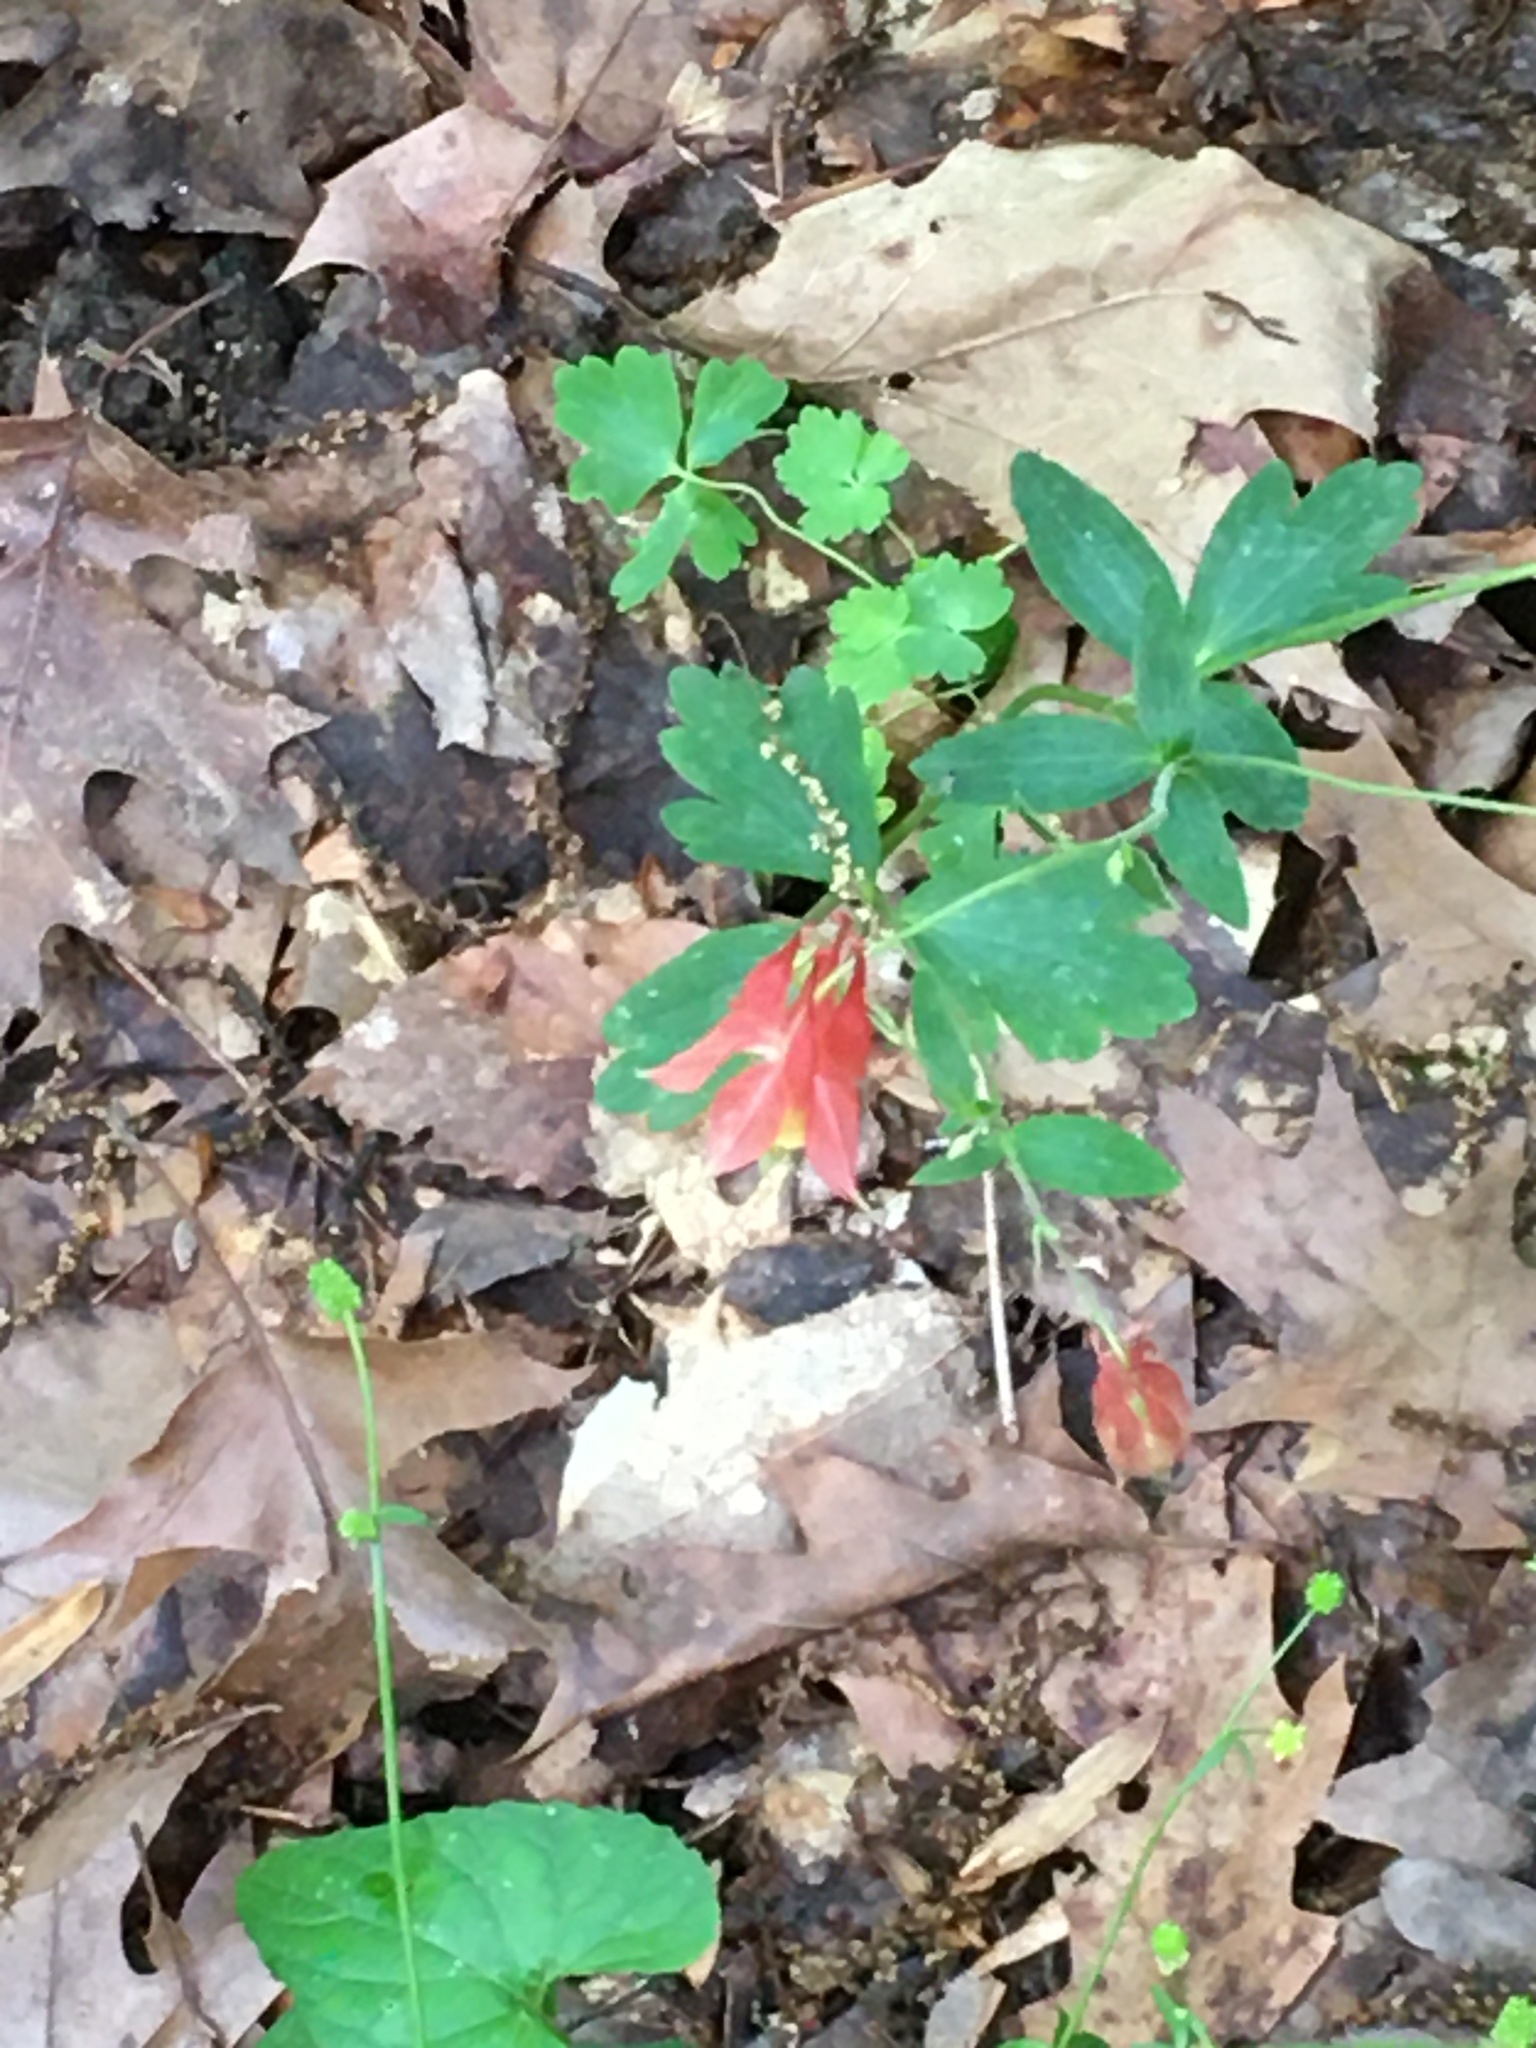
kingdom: Plantae
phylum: Tracheophyta
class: Magnoliopsida
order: Ranunculales
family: Ranunculaceae
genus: Aquilegia
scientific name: Aquilegia canadensis
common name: American columbine
